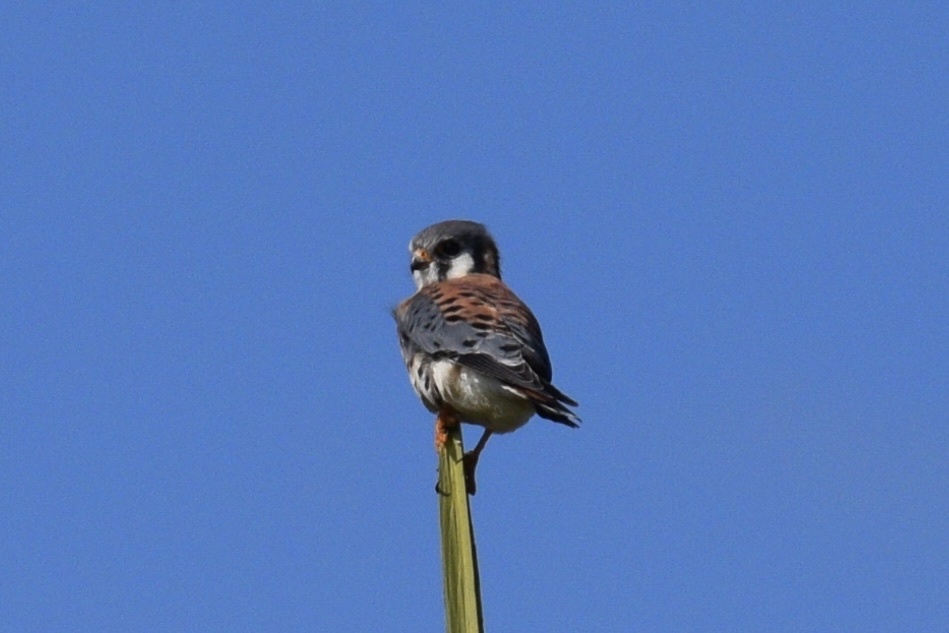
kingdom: Animalia
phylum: Chordata
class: Aves
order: Falconiformes
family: Falconidae
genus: Falco
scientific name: Falco sparverius
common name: American kestrel
